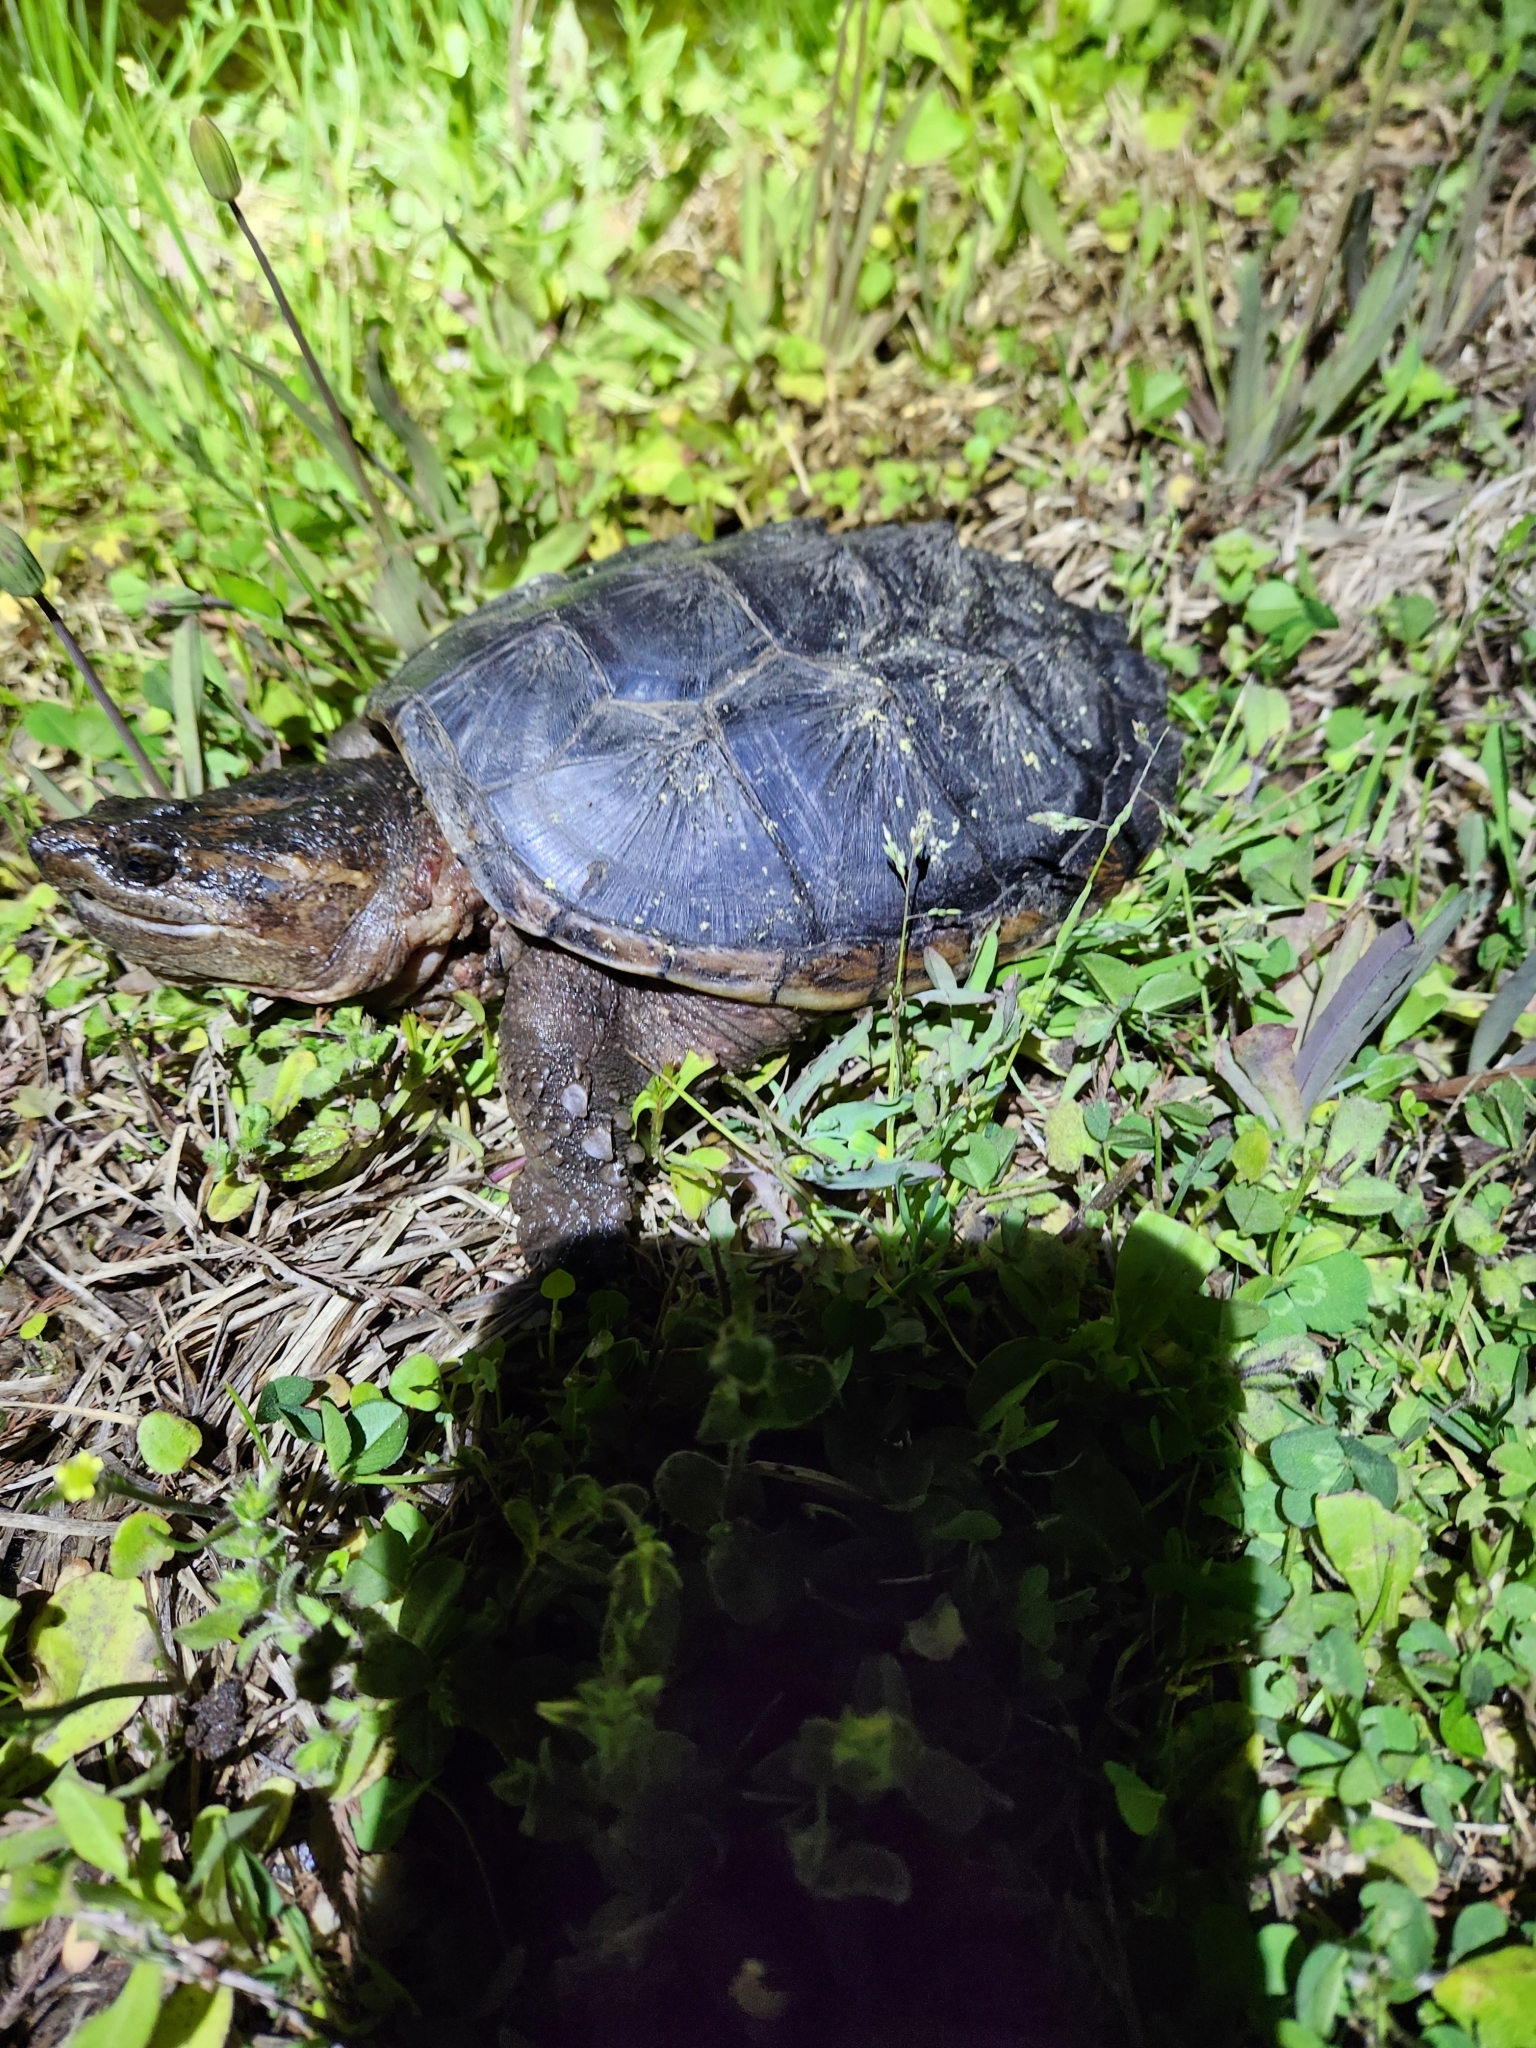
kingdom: Animalia
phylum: Chordata
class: Testudines
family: Chelydridae
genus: Chelydra
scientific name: Chelydra serpentina
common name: Common snapping turtle
